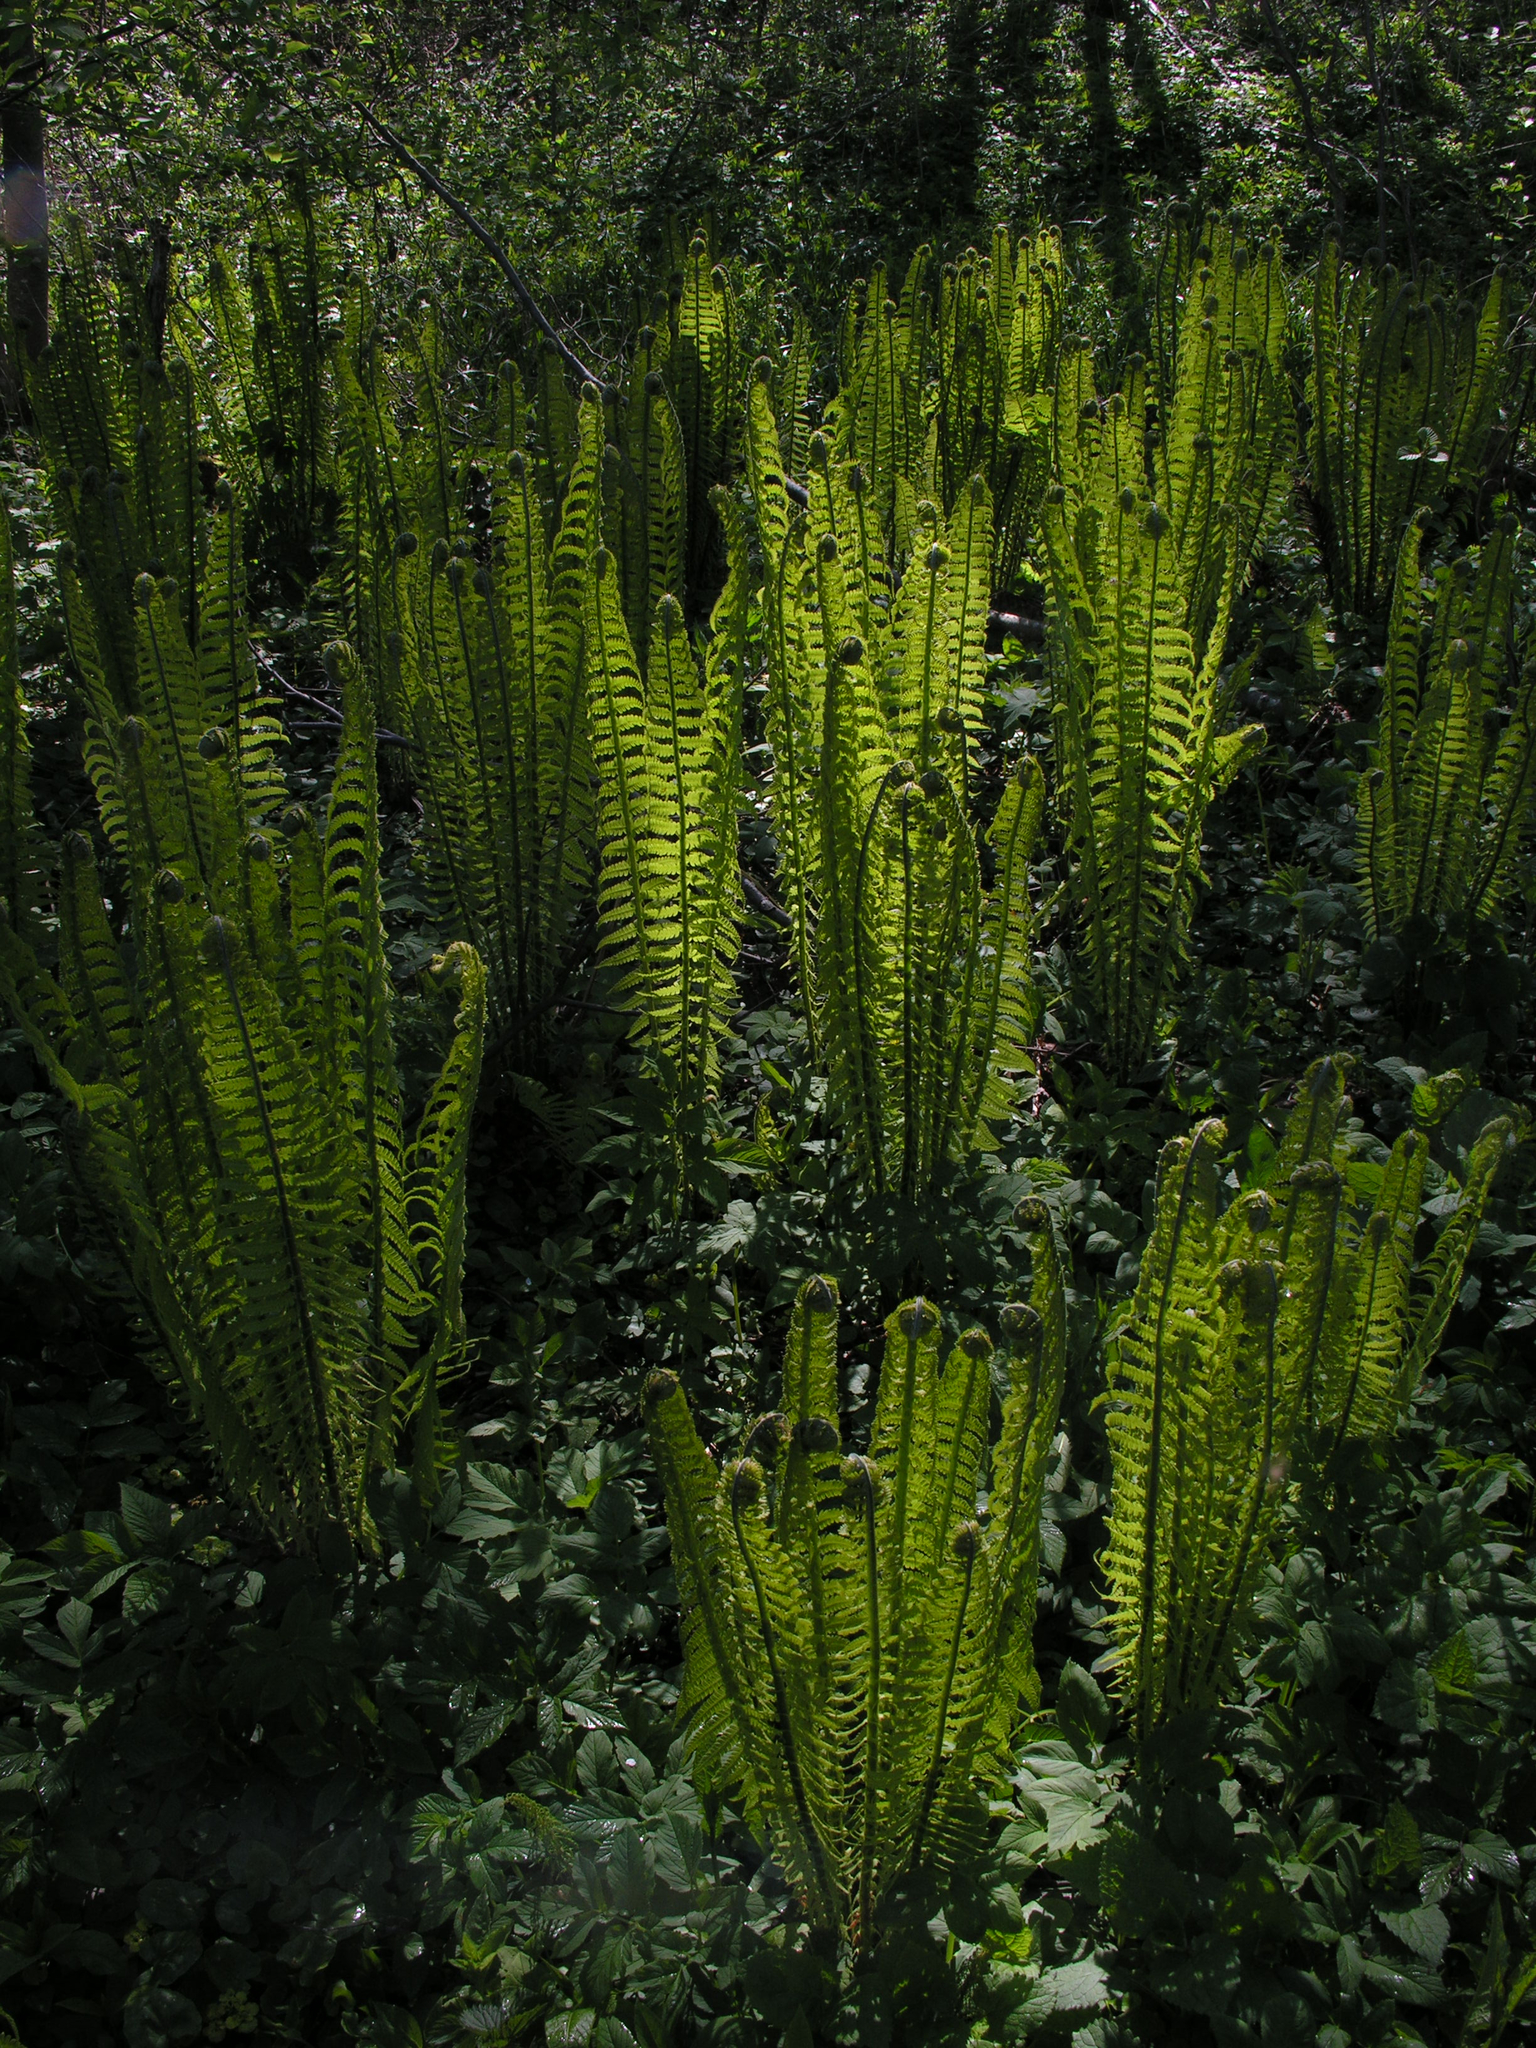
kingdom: Plantae
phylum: Tracheophyta
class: Polypodiopsida
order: Polypodiales
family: Onocleaceae
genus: Matteuccia
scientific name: Matteuccia struthiopteris
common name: Ostrich fern
